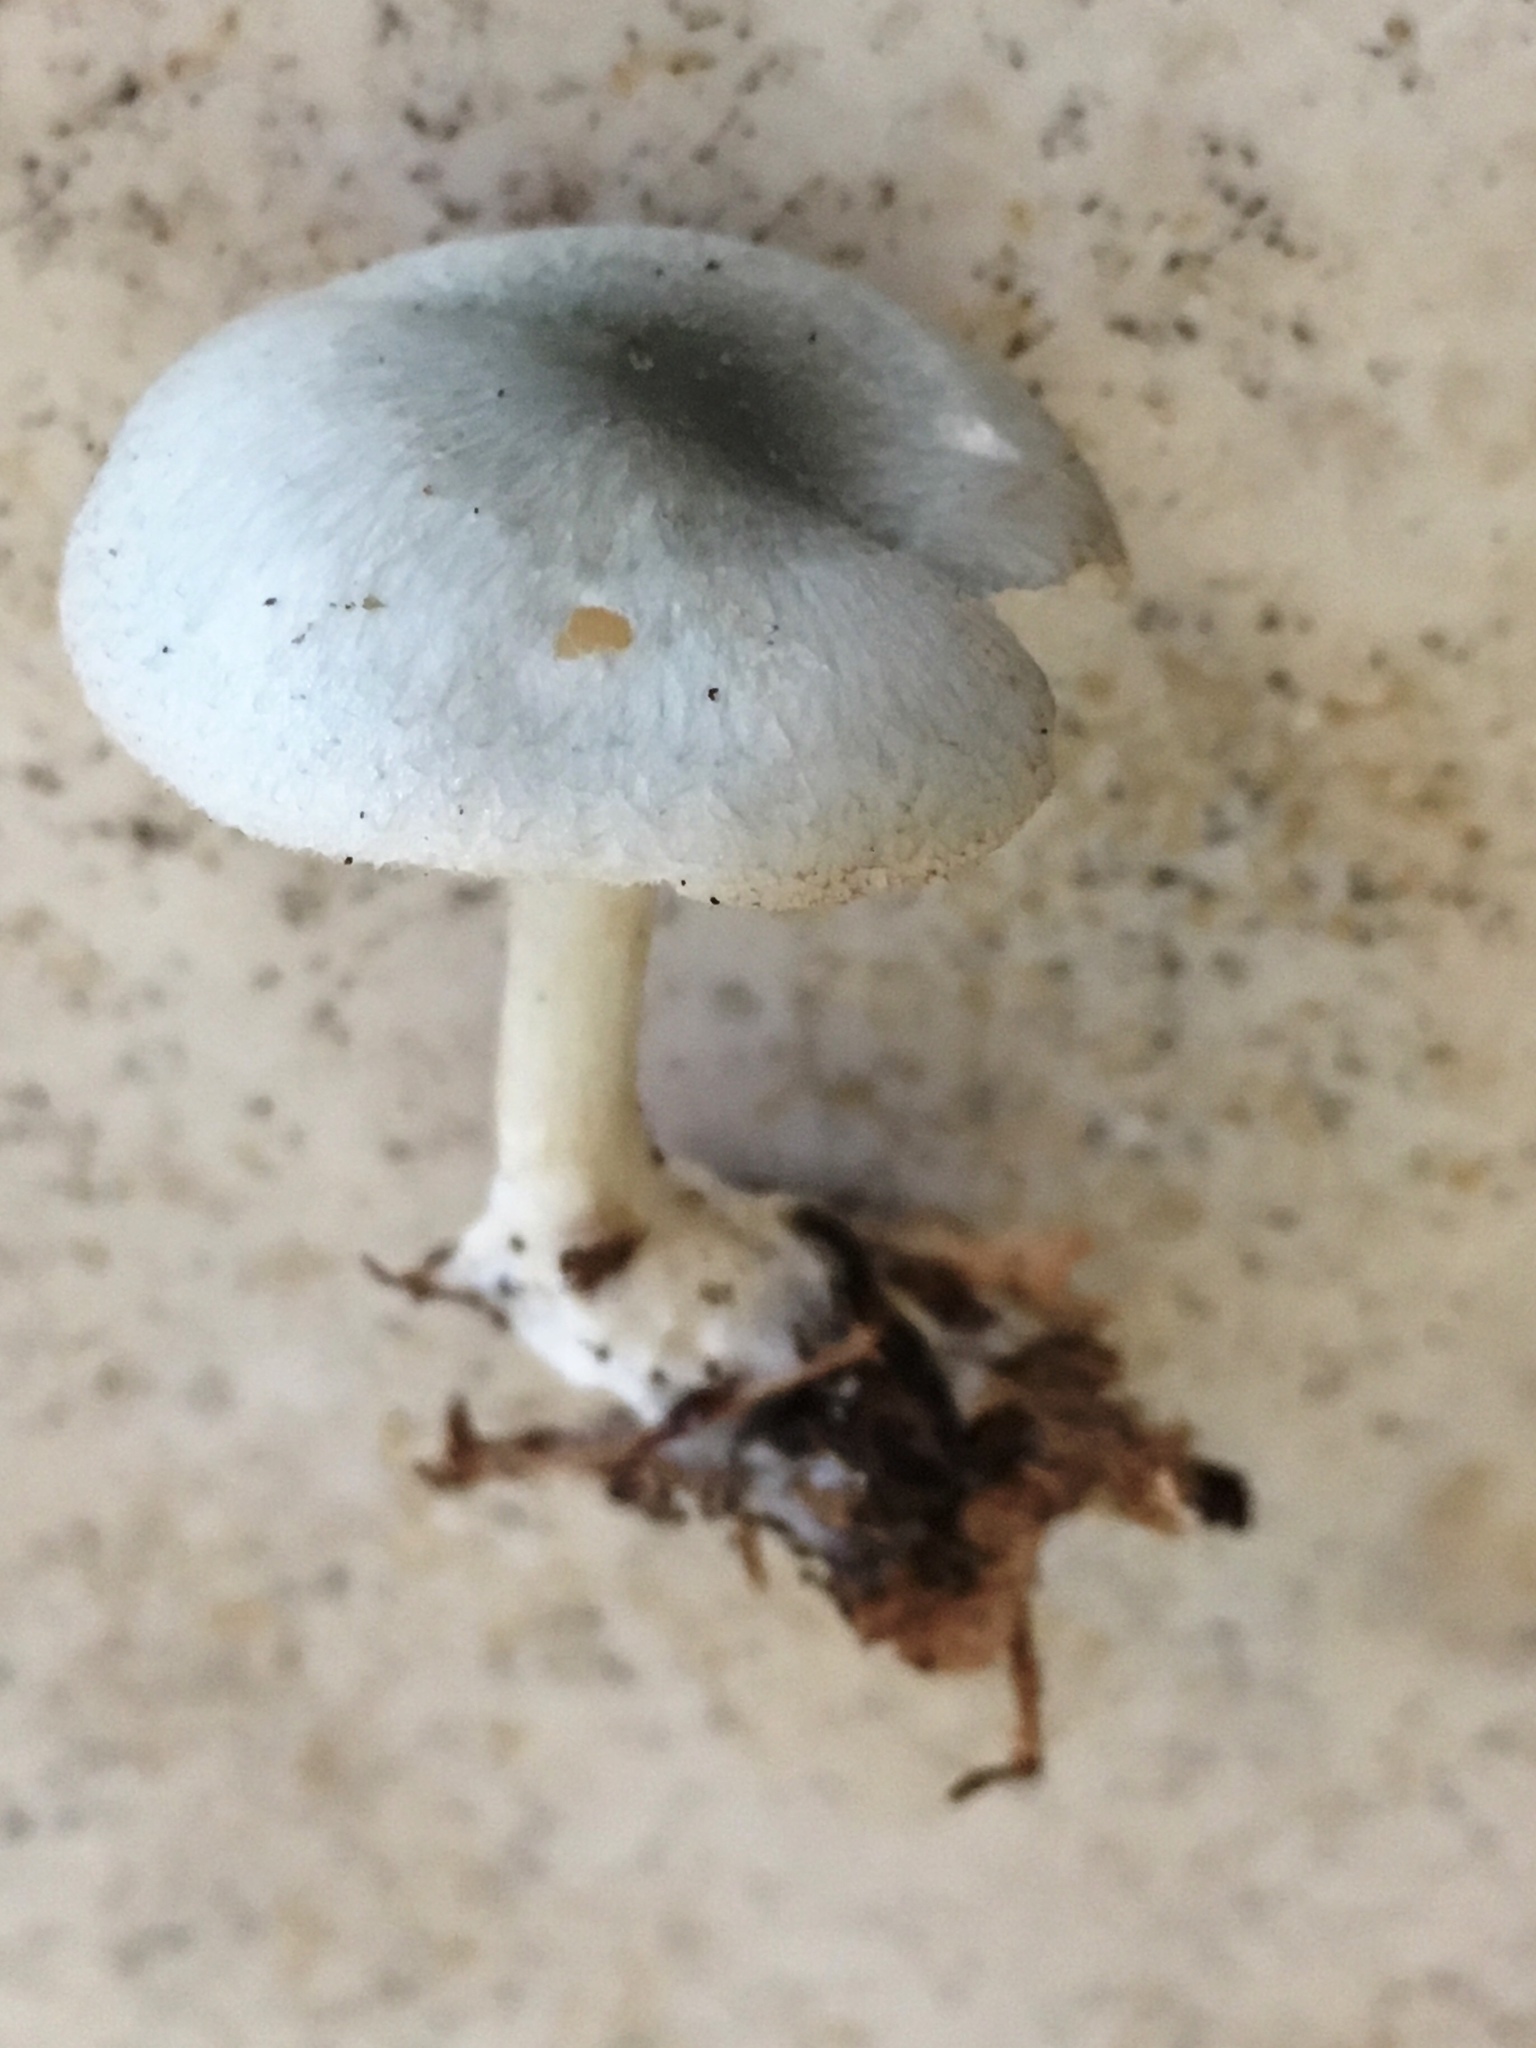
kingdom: Fungi
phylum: Basidiomycota
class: Agaricomycetes
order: Agaricales
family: Tricholomataceae
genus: Collybia
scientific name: Collybia
